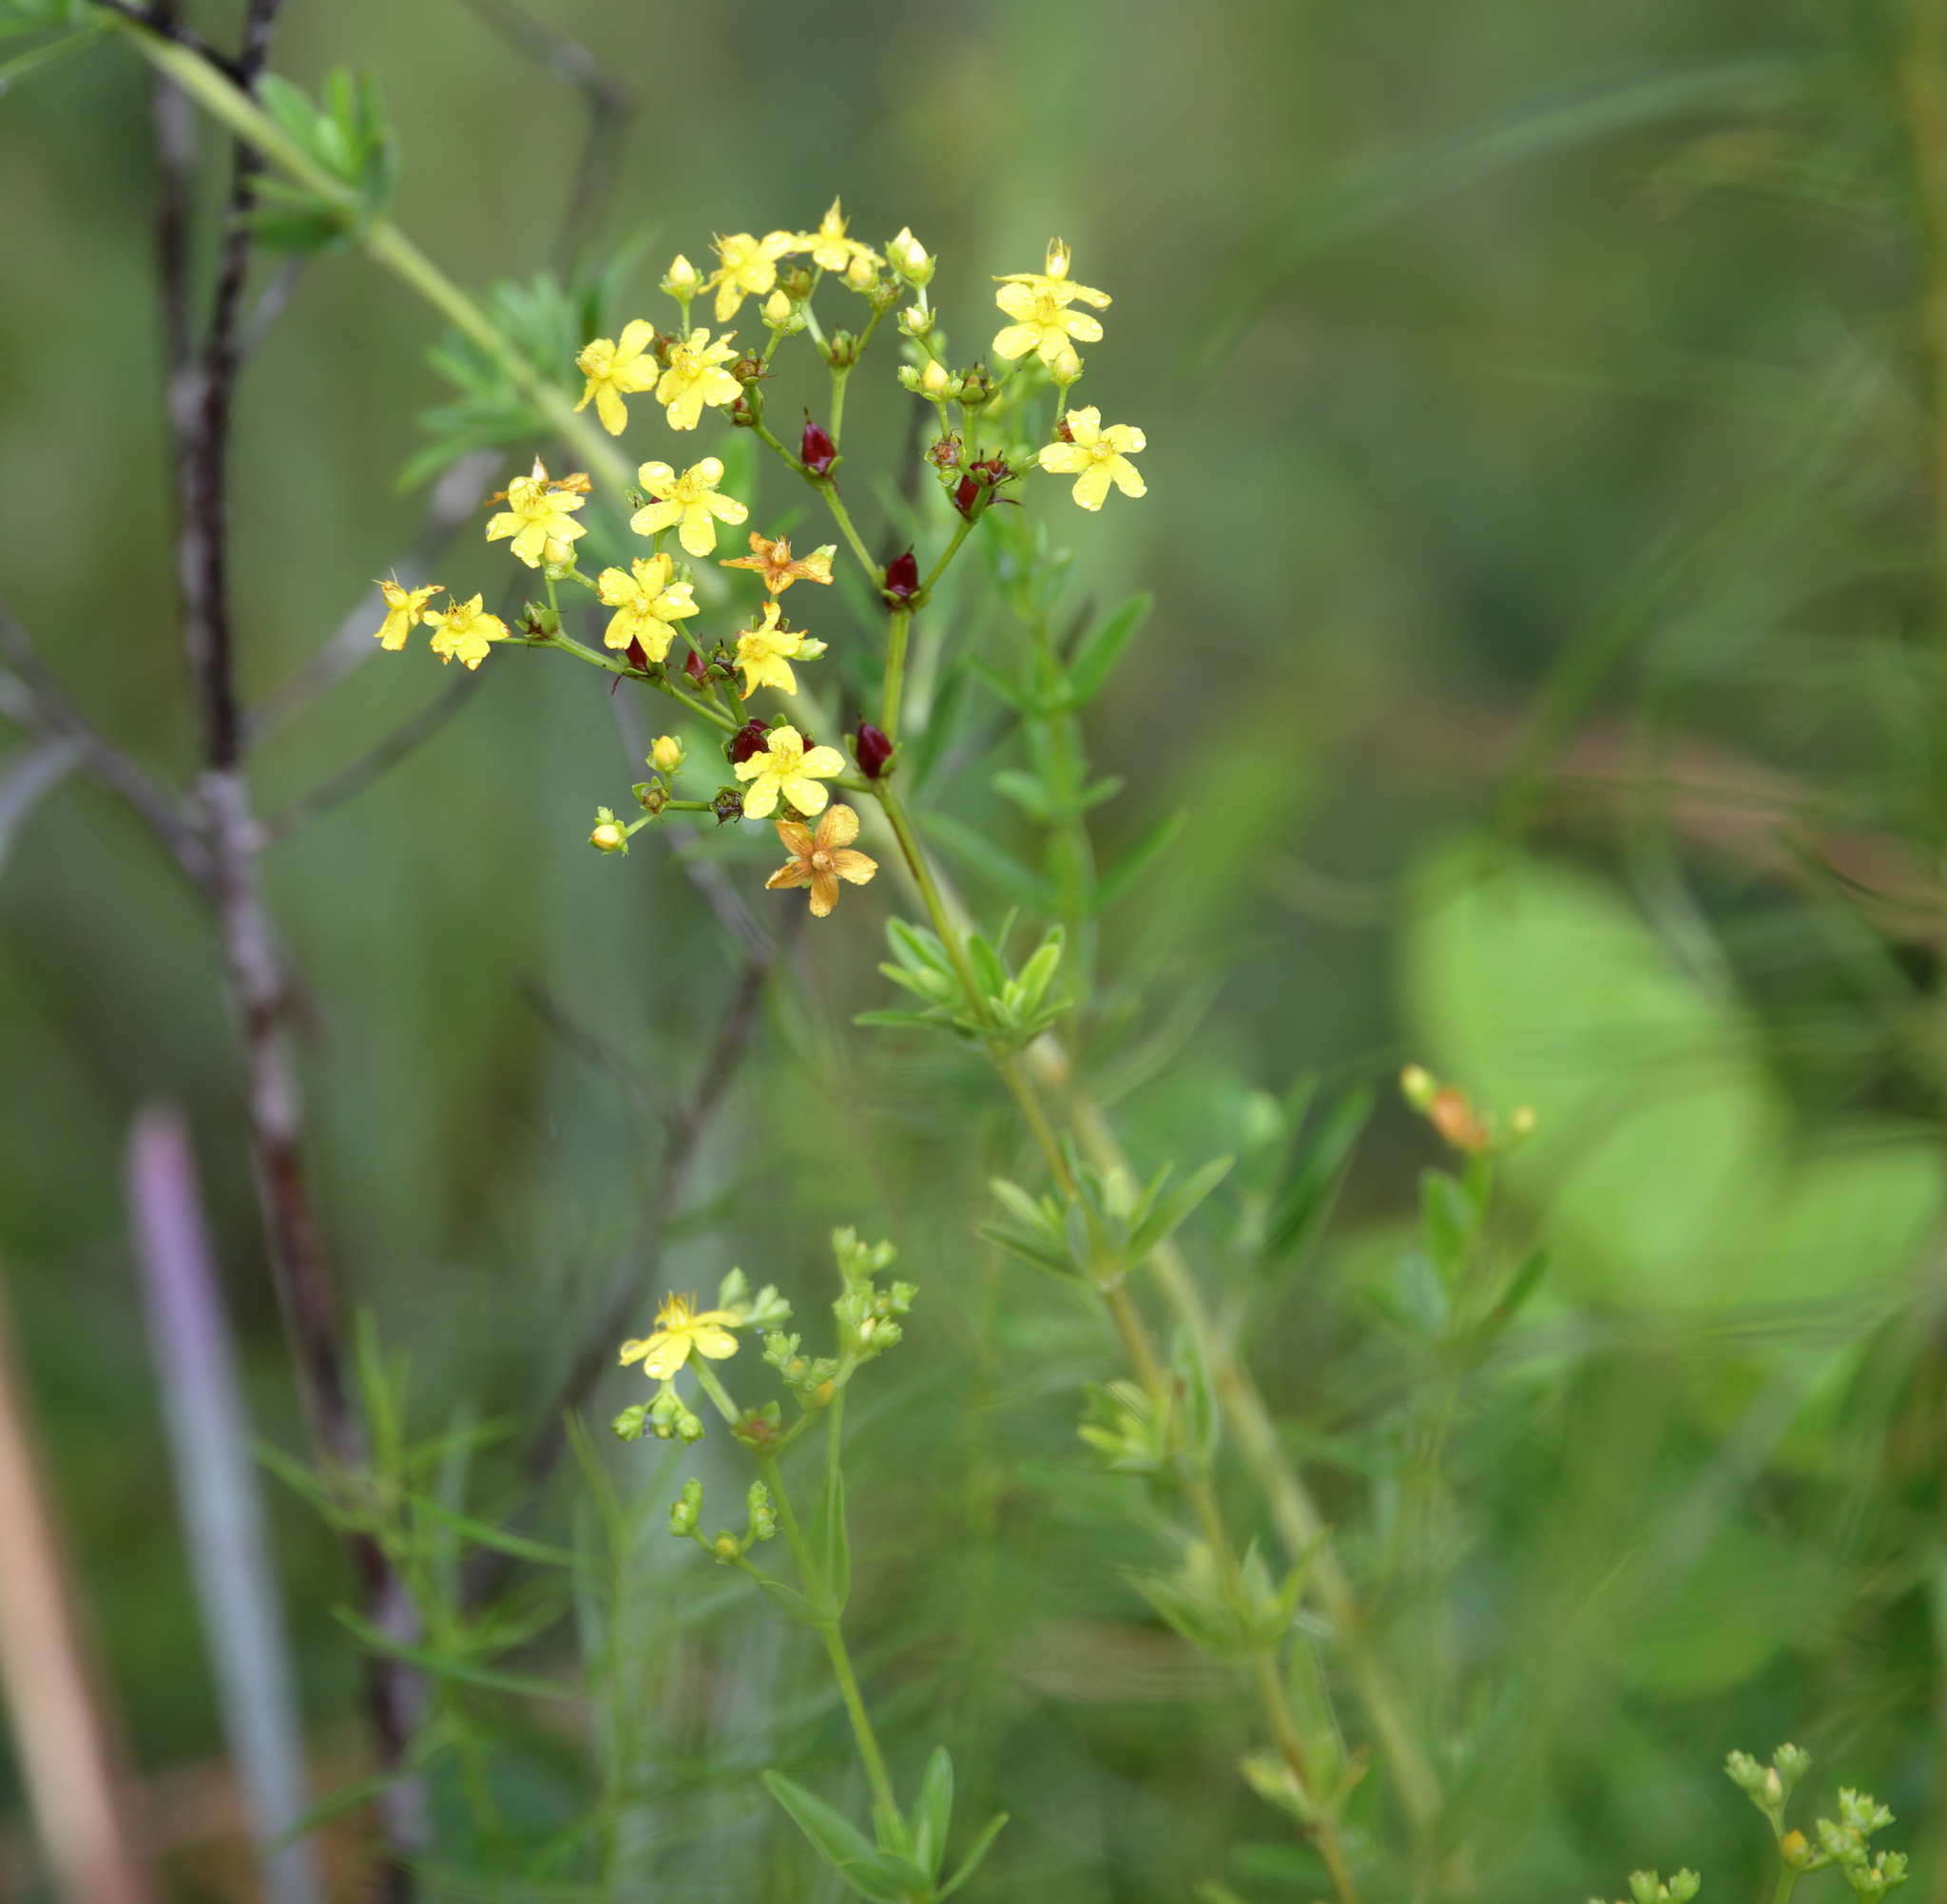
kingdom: Plantae
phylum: Tracheophyta
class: Magnoliopsida
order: Malpighiales
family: Hypericaceae
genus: Hypericum
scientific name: Hypericum cistifolium
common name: Round-pod st. john's-wort
